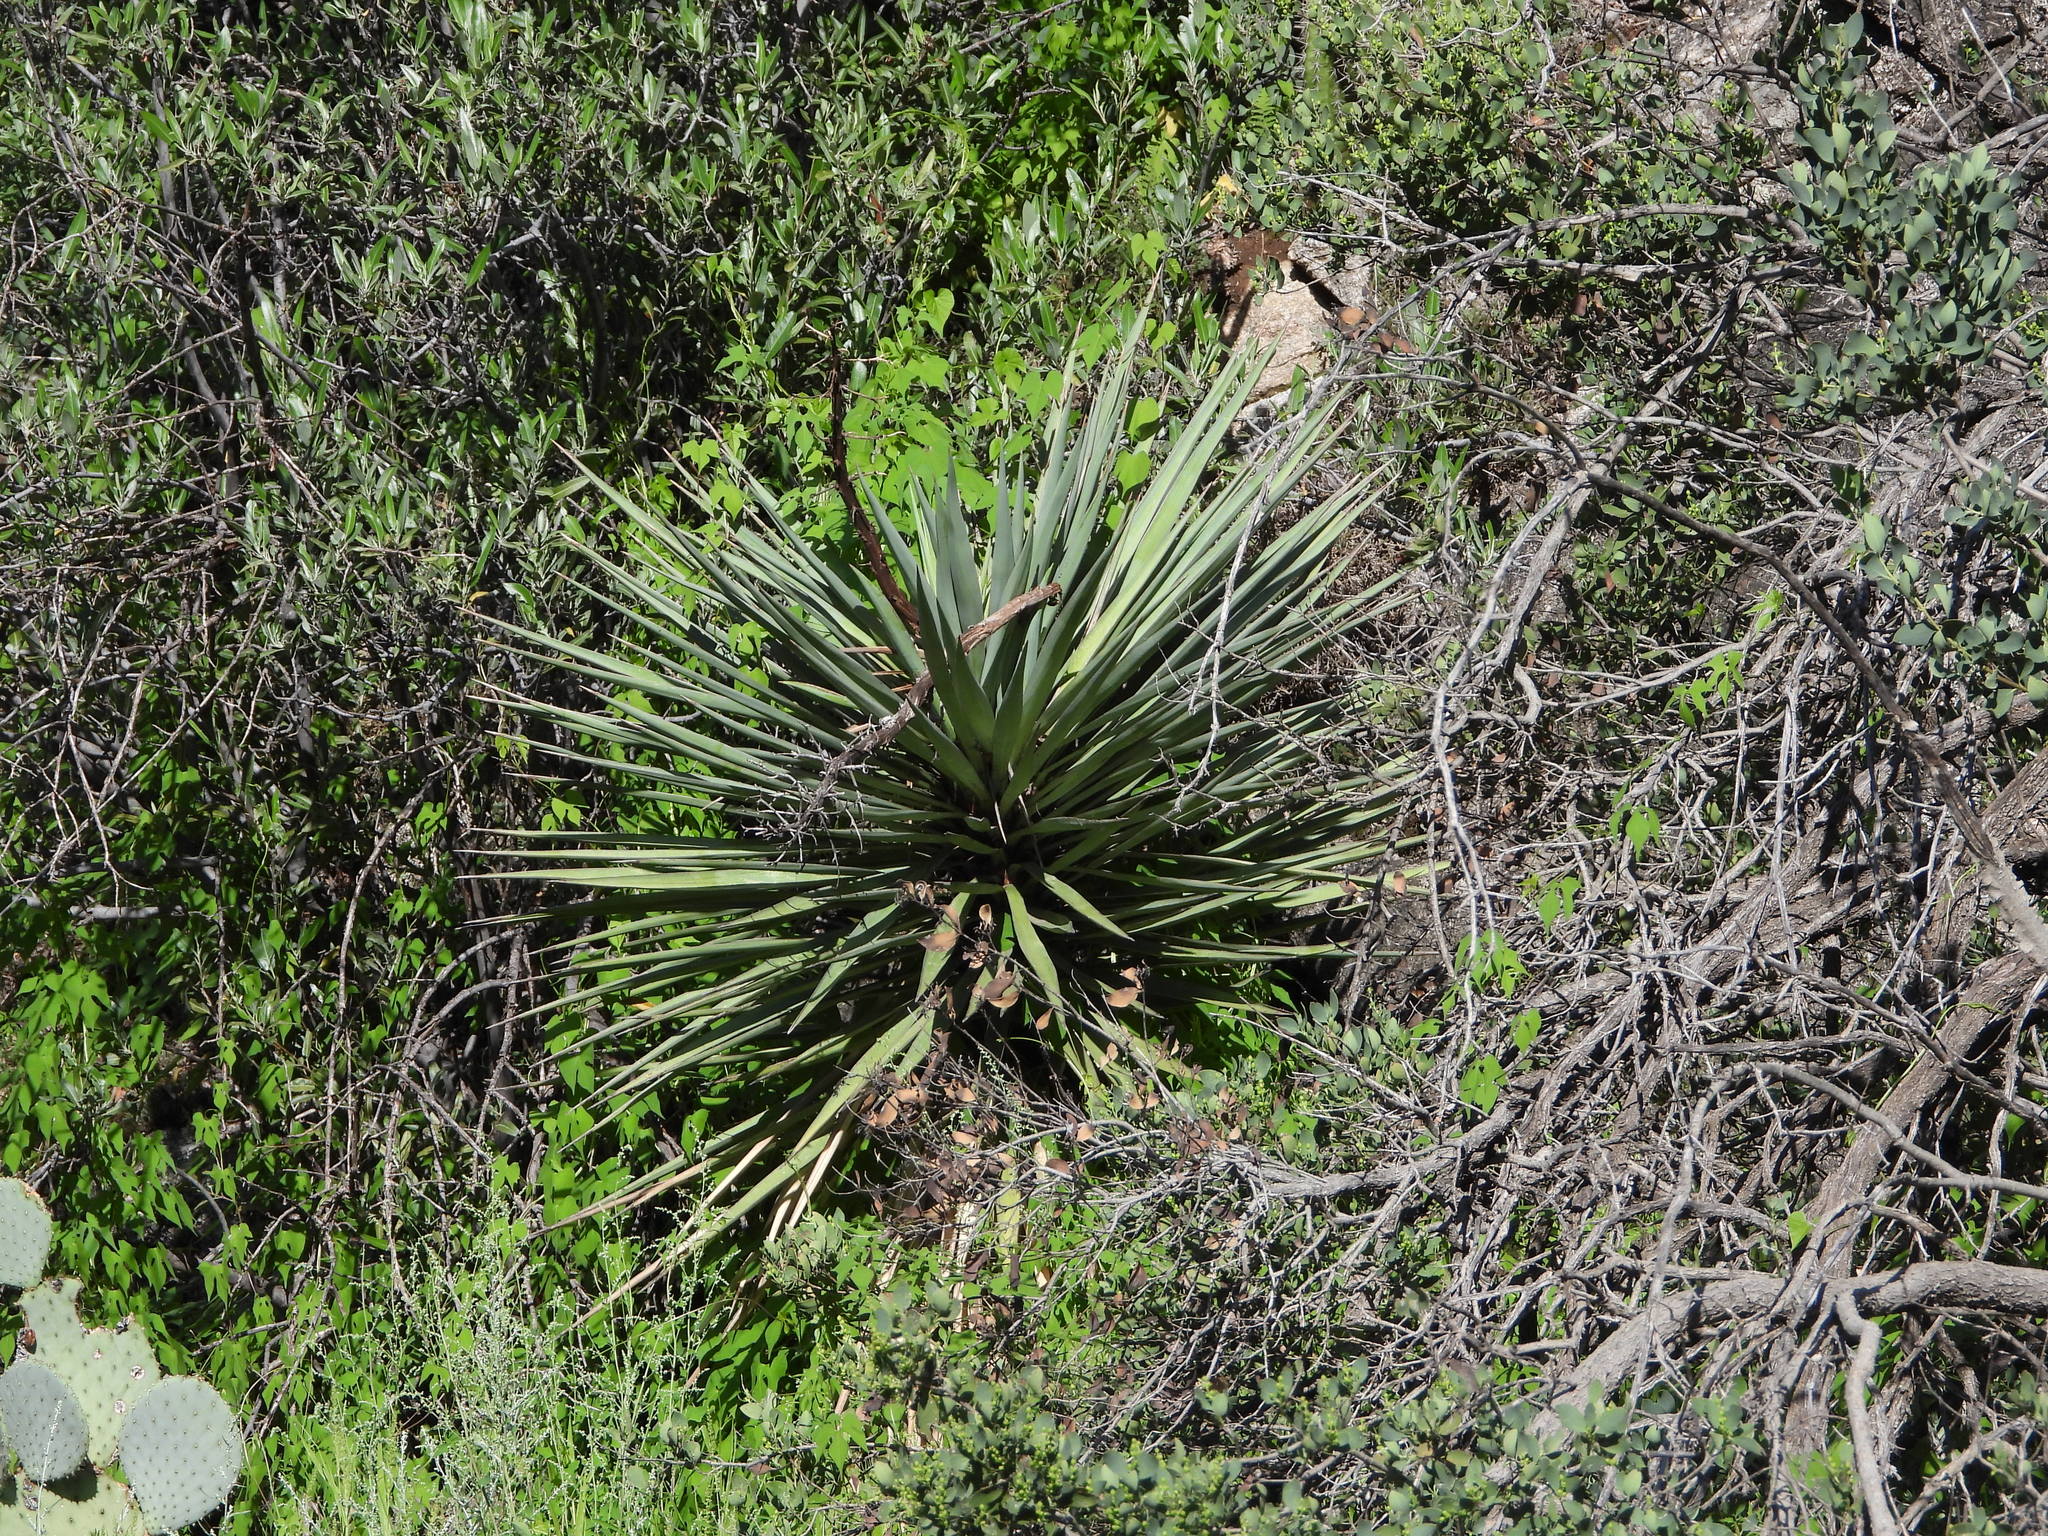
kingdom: Plantae
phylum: Tracheophyta
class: Liliopsida
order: Asparagales
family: Asparagaceae
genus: Yucca
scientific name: Yucca madrensis
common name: Hoary yucca
